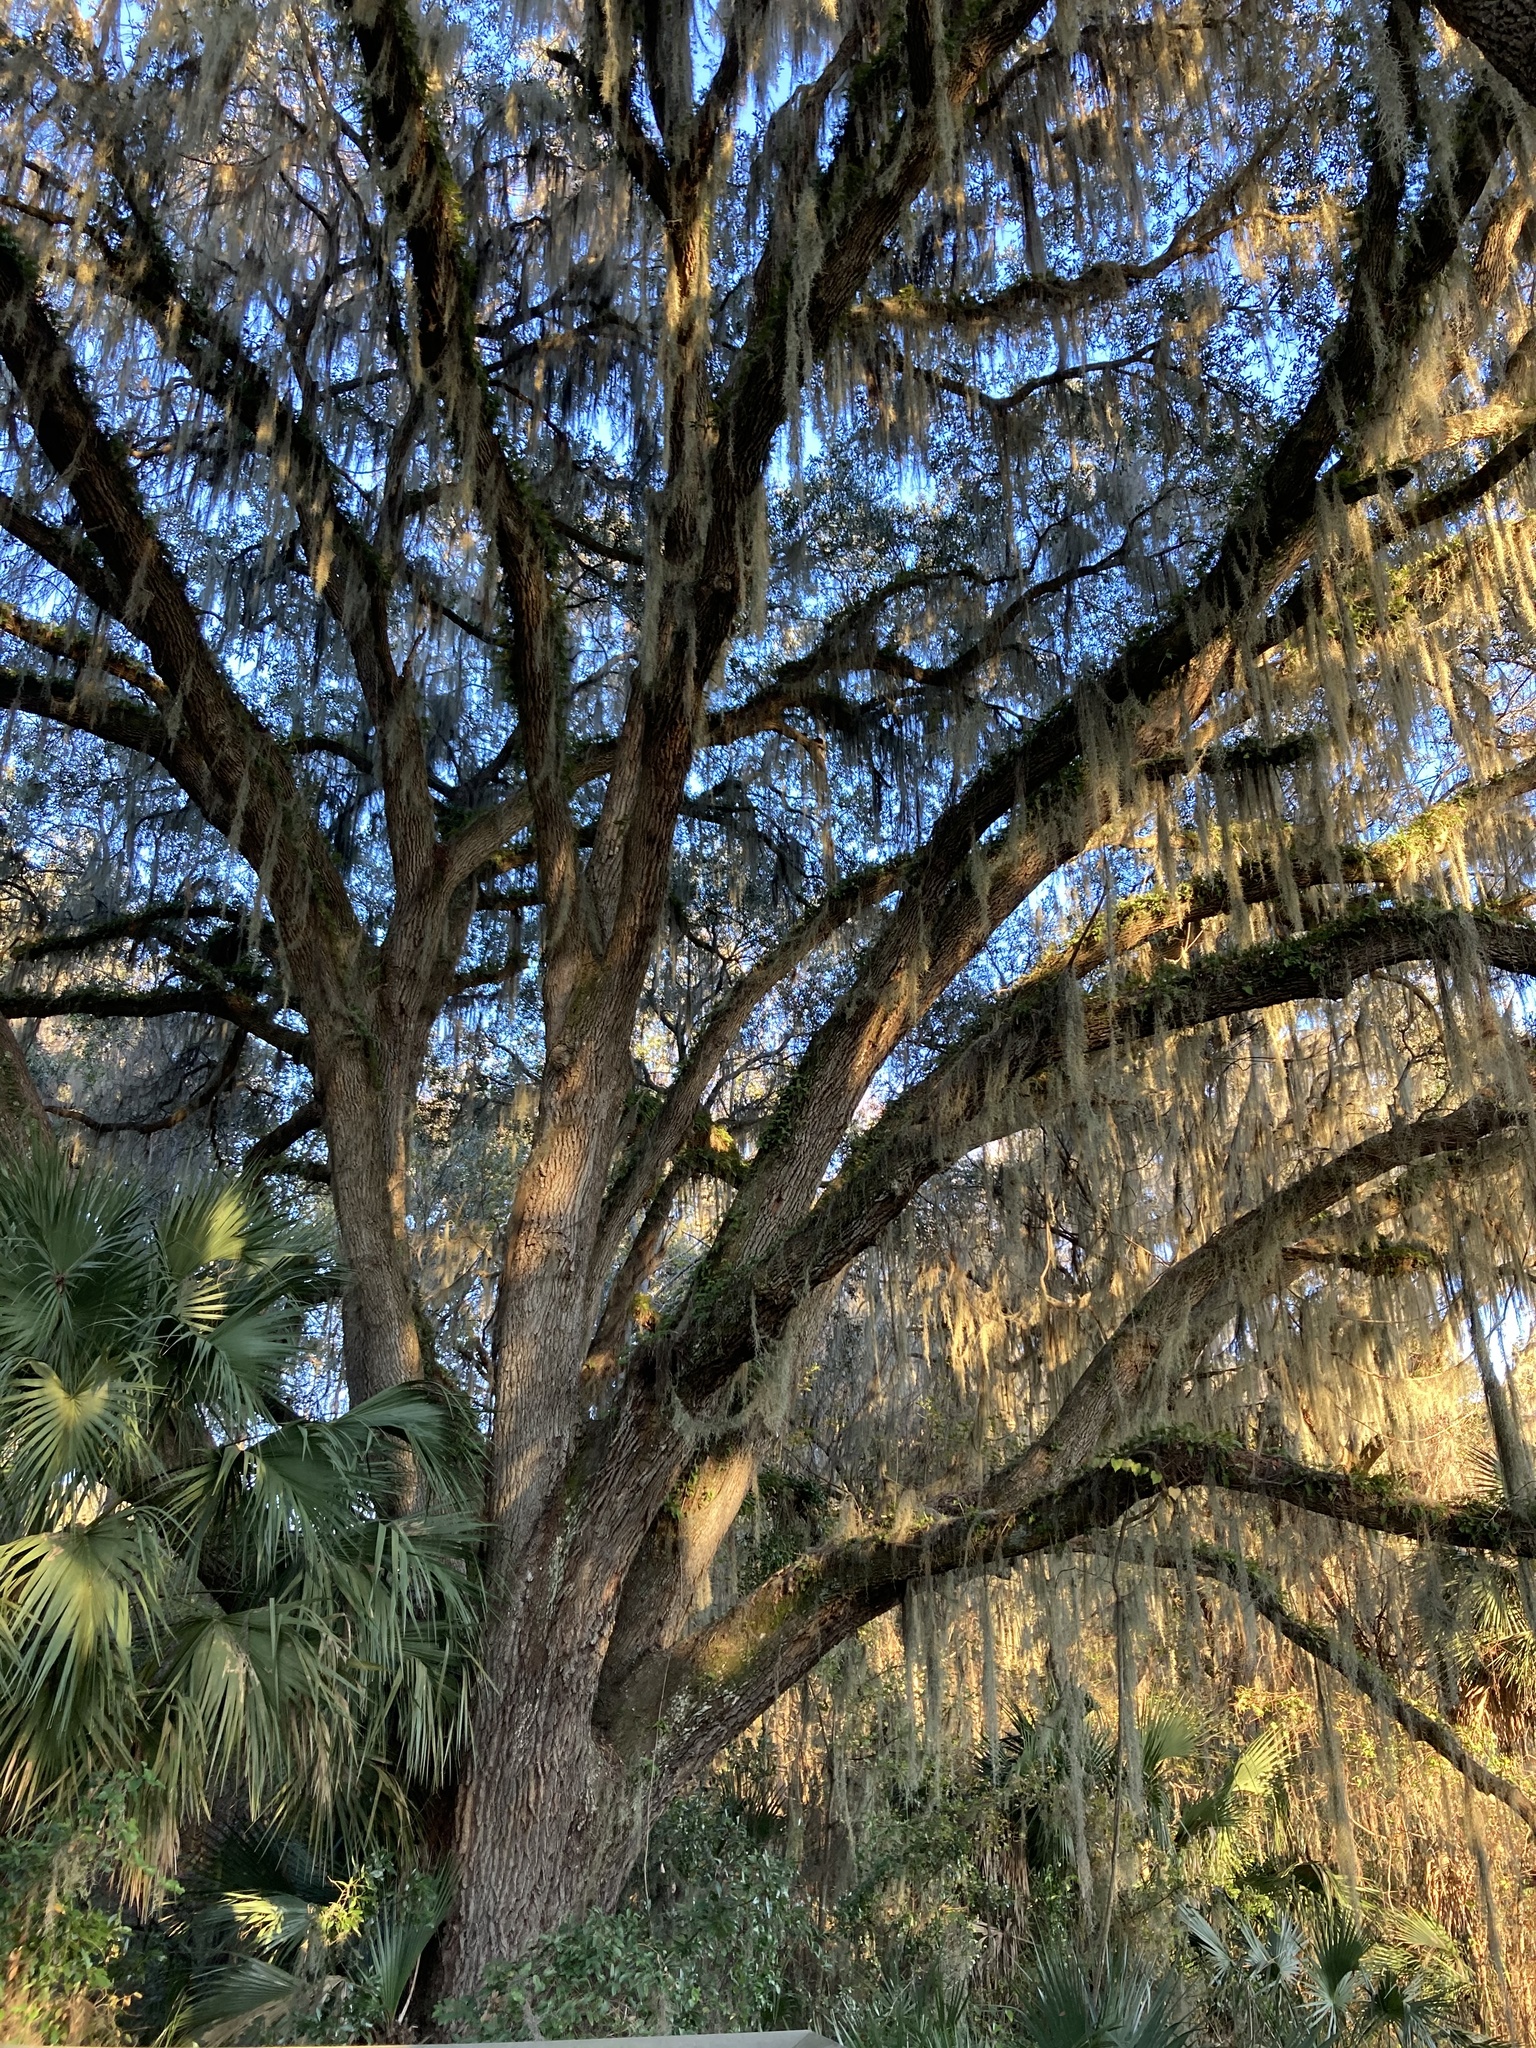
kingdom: Plantae
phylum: Tracheophyta
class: Magnoliopsida
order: Fagales
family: Fagaceae
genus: Quercus
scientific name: Quercus virginiana
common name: Southern live oak
